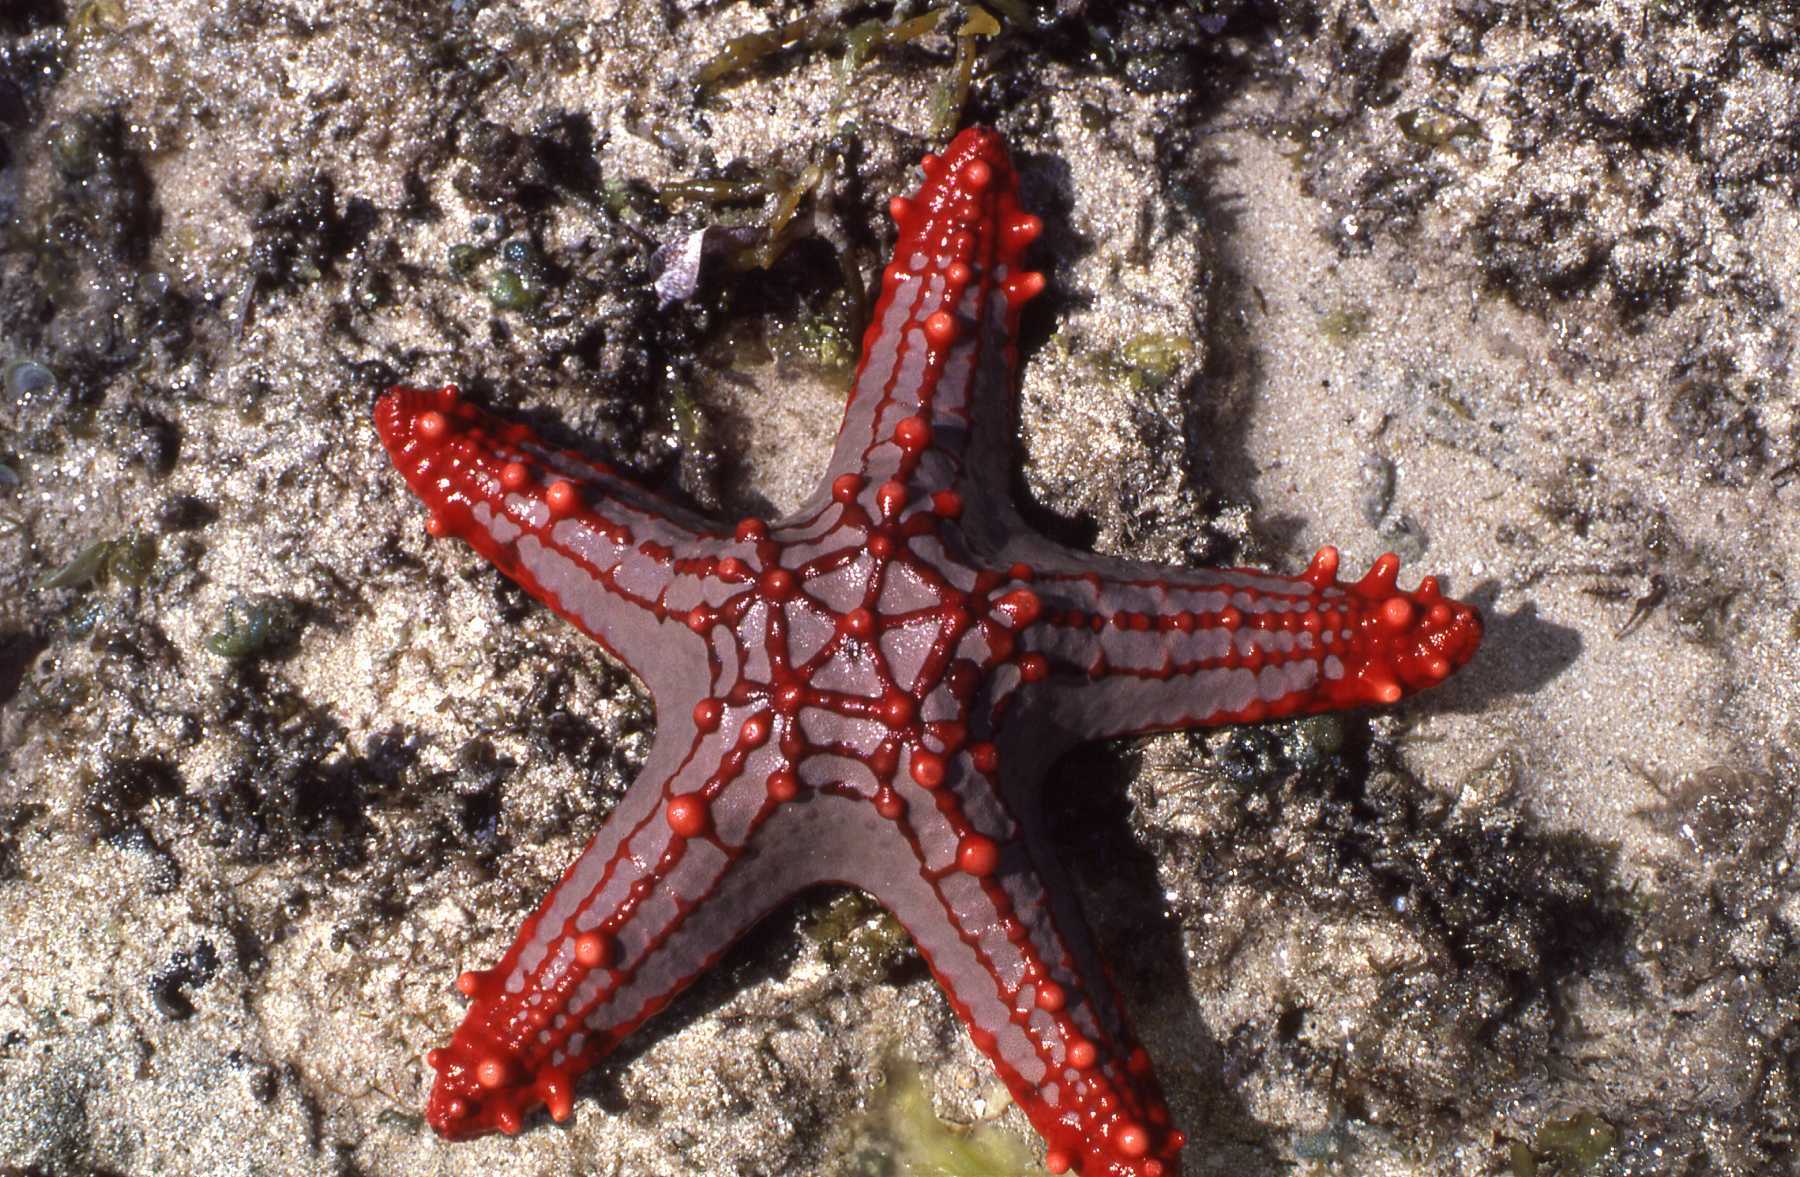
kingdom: Animalia
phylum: Echinodermata
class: Asteroidea
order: Valvatida
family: Oreasteridae
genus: Protoreaster
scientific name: Protoreaster lincki
